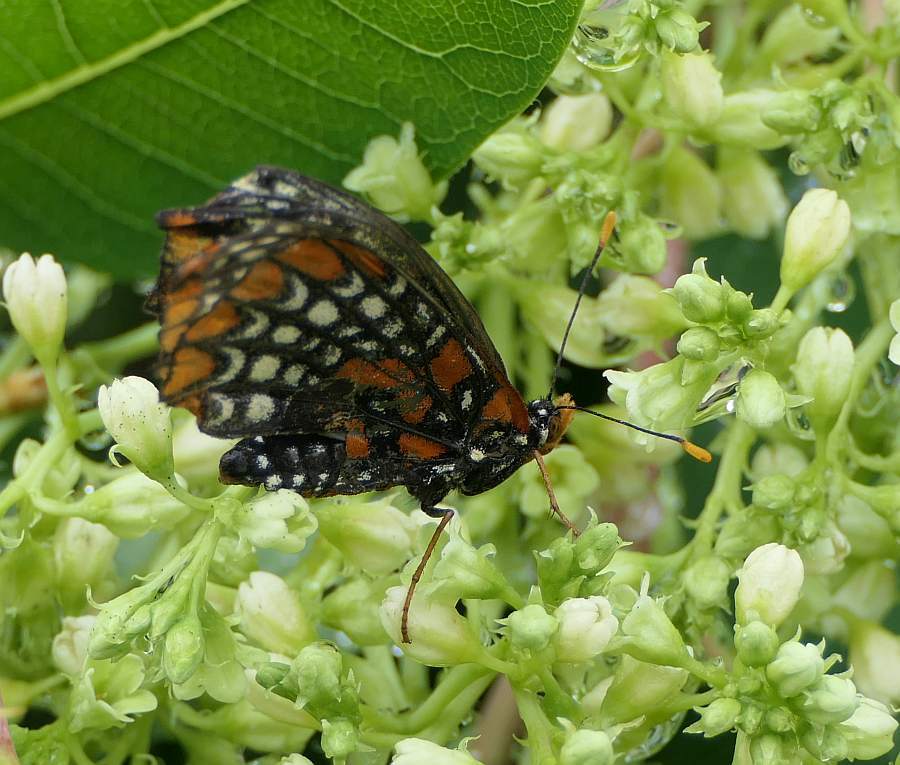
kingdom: Animalia
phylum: Arthropoda
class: Insecta
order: Lepidoptera
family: Nymphalidae
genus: Euphydryas
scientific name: Euphydryas phaeton
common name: Baltimore checkerspot
